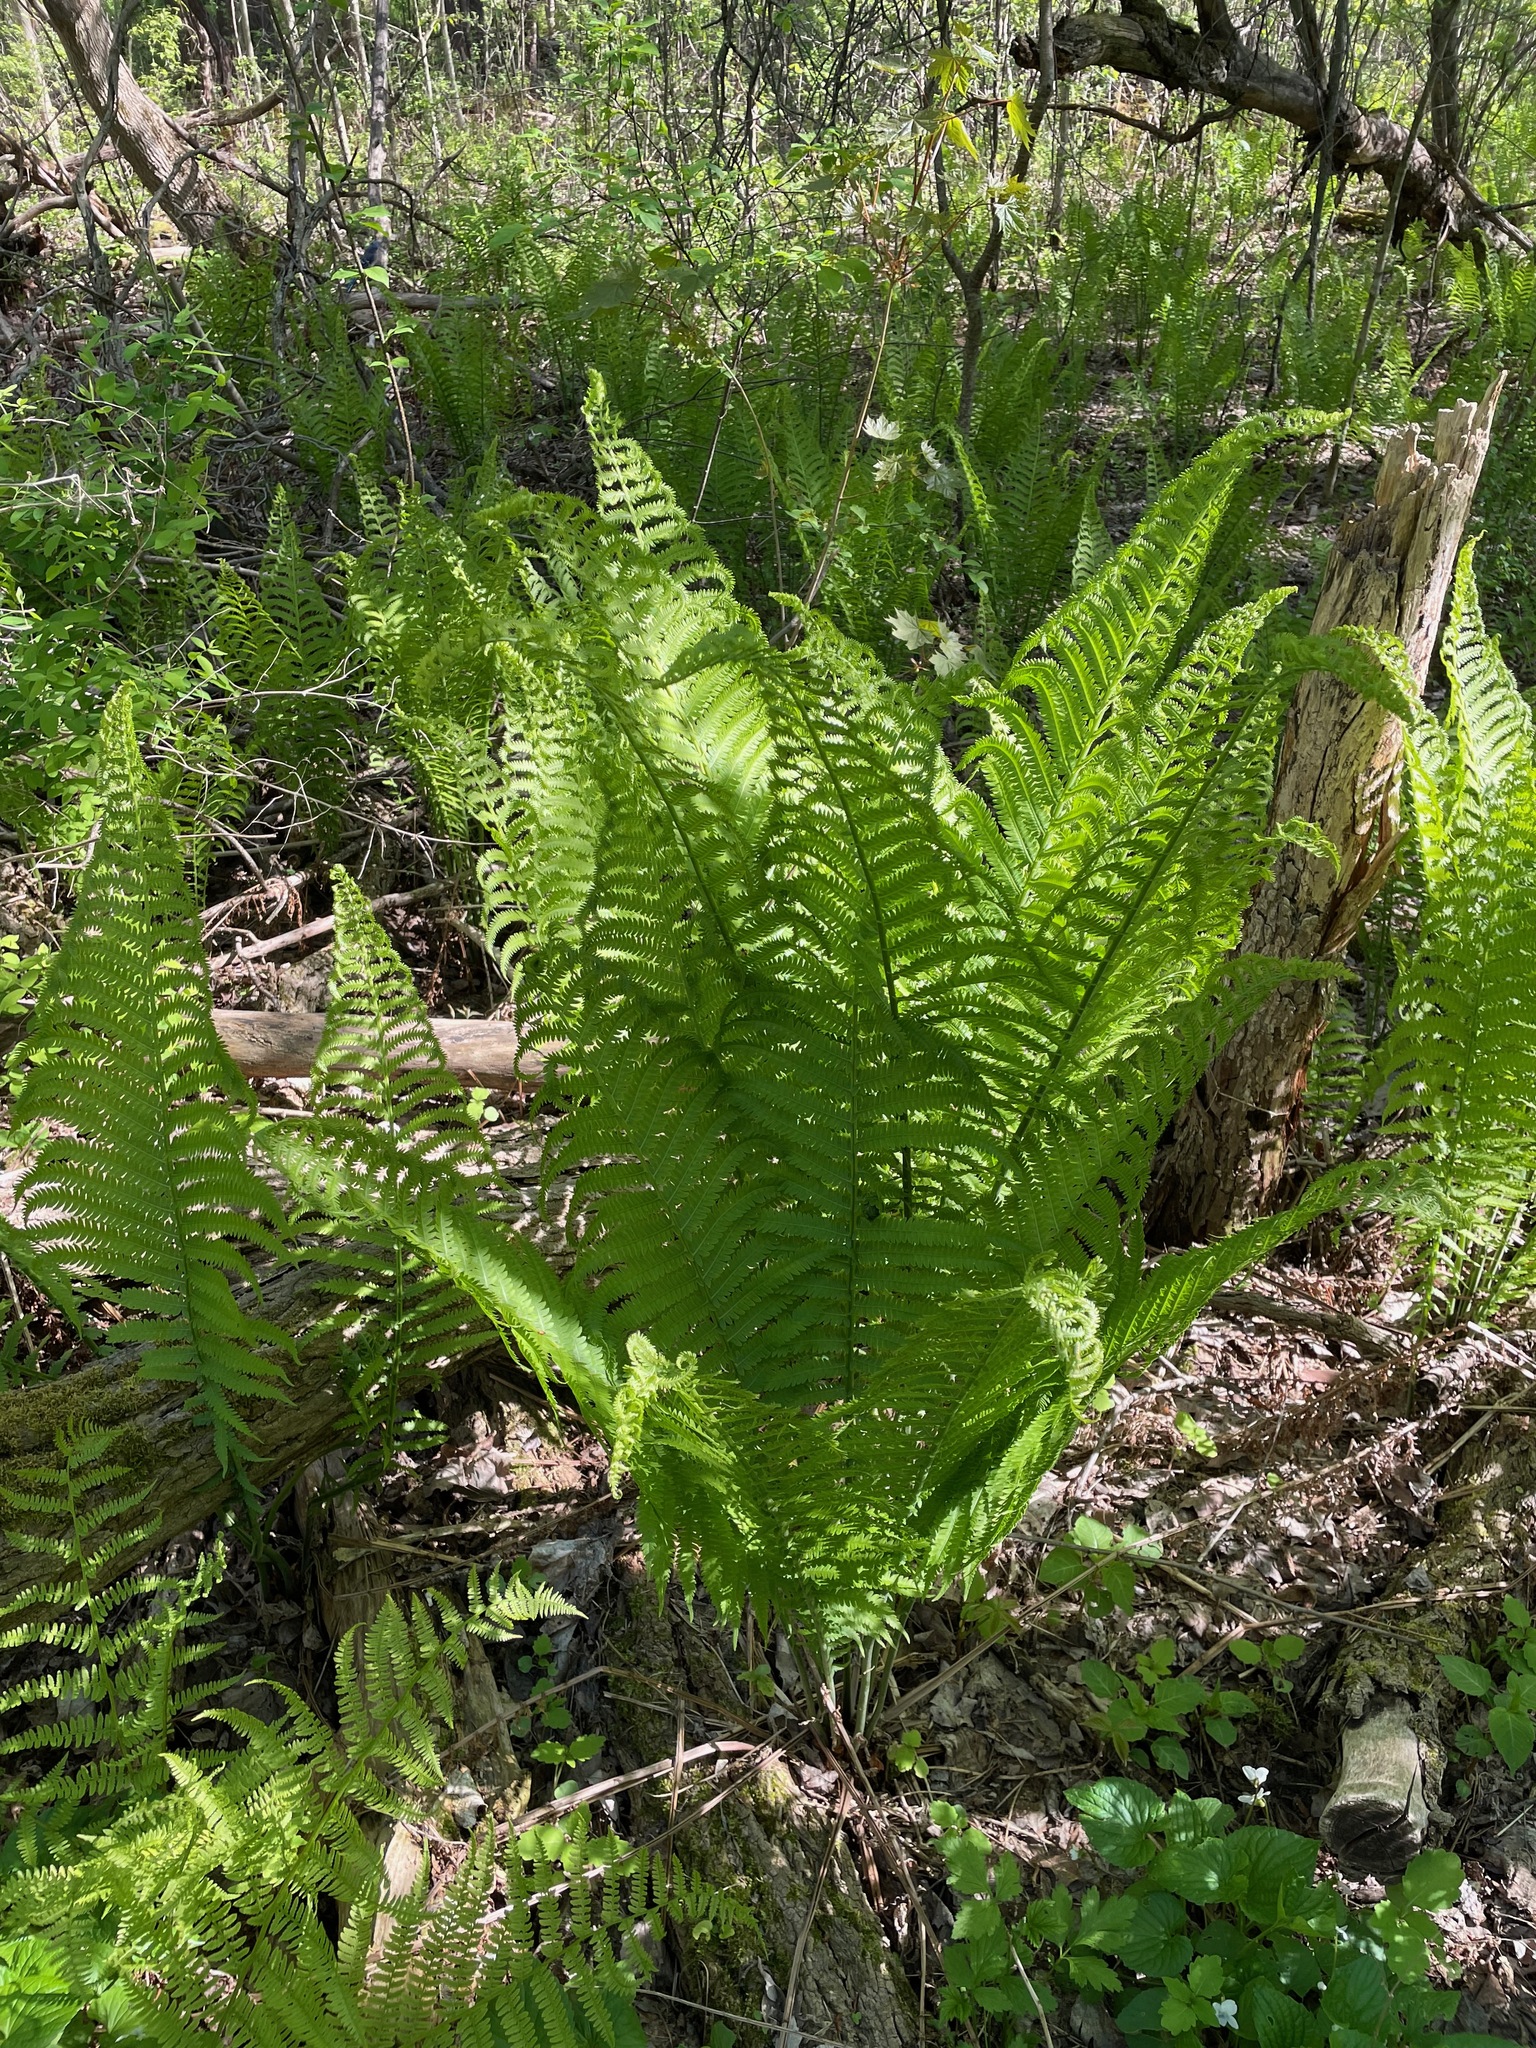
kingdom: Plantae
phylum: Tracheophyta
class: Polypodiopsida
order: Polypodiales
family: Onocleaceae
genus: Matteuccia
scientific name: Matteuccia struthiopteris
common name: Ostrich fern
